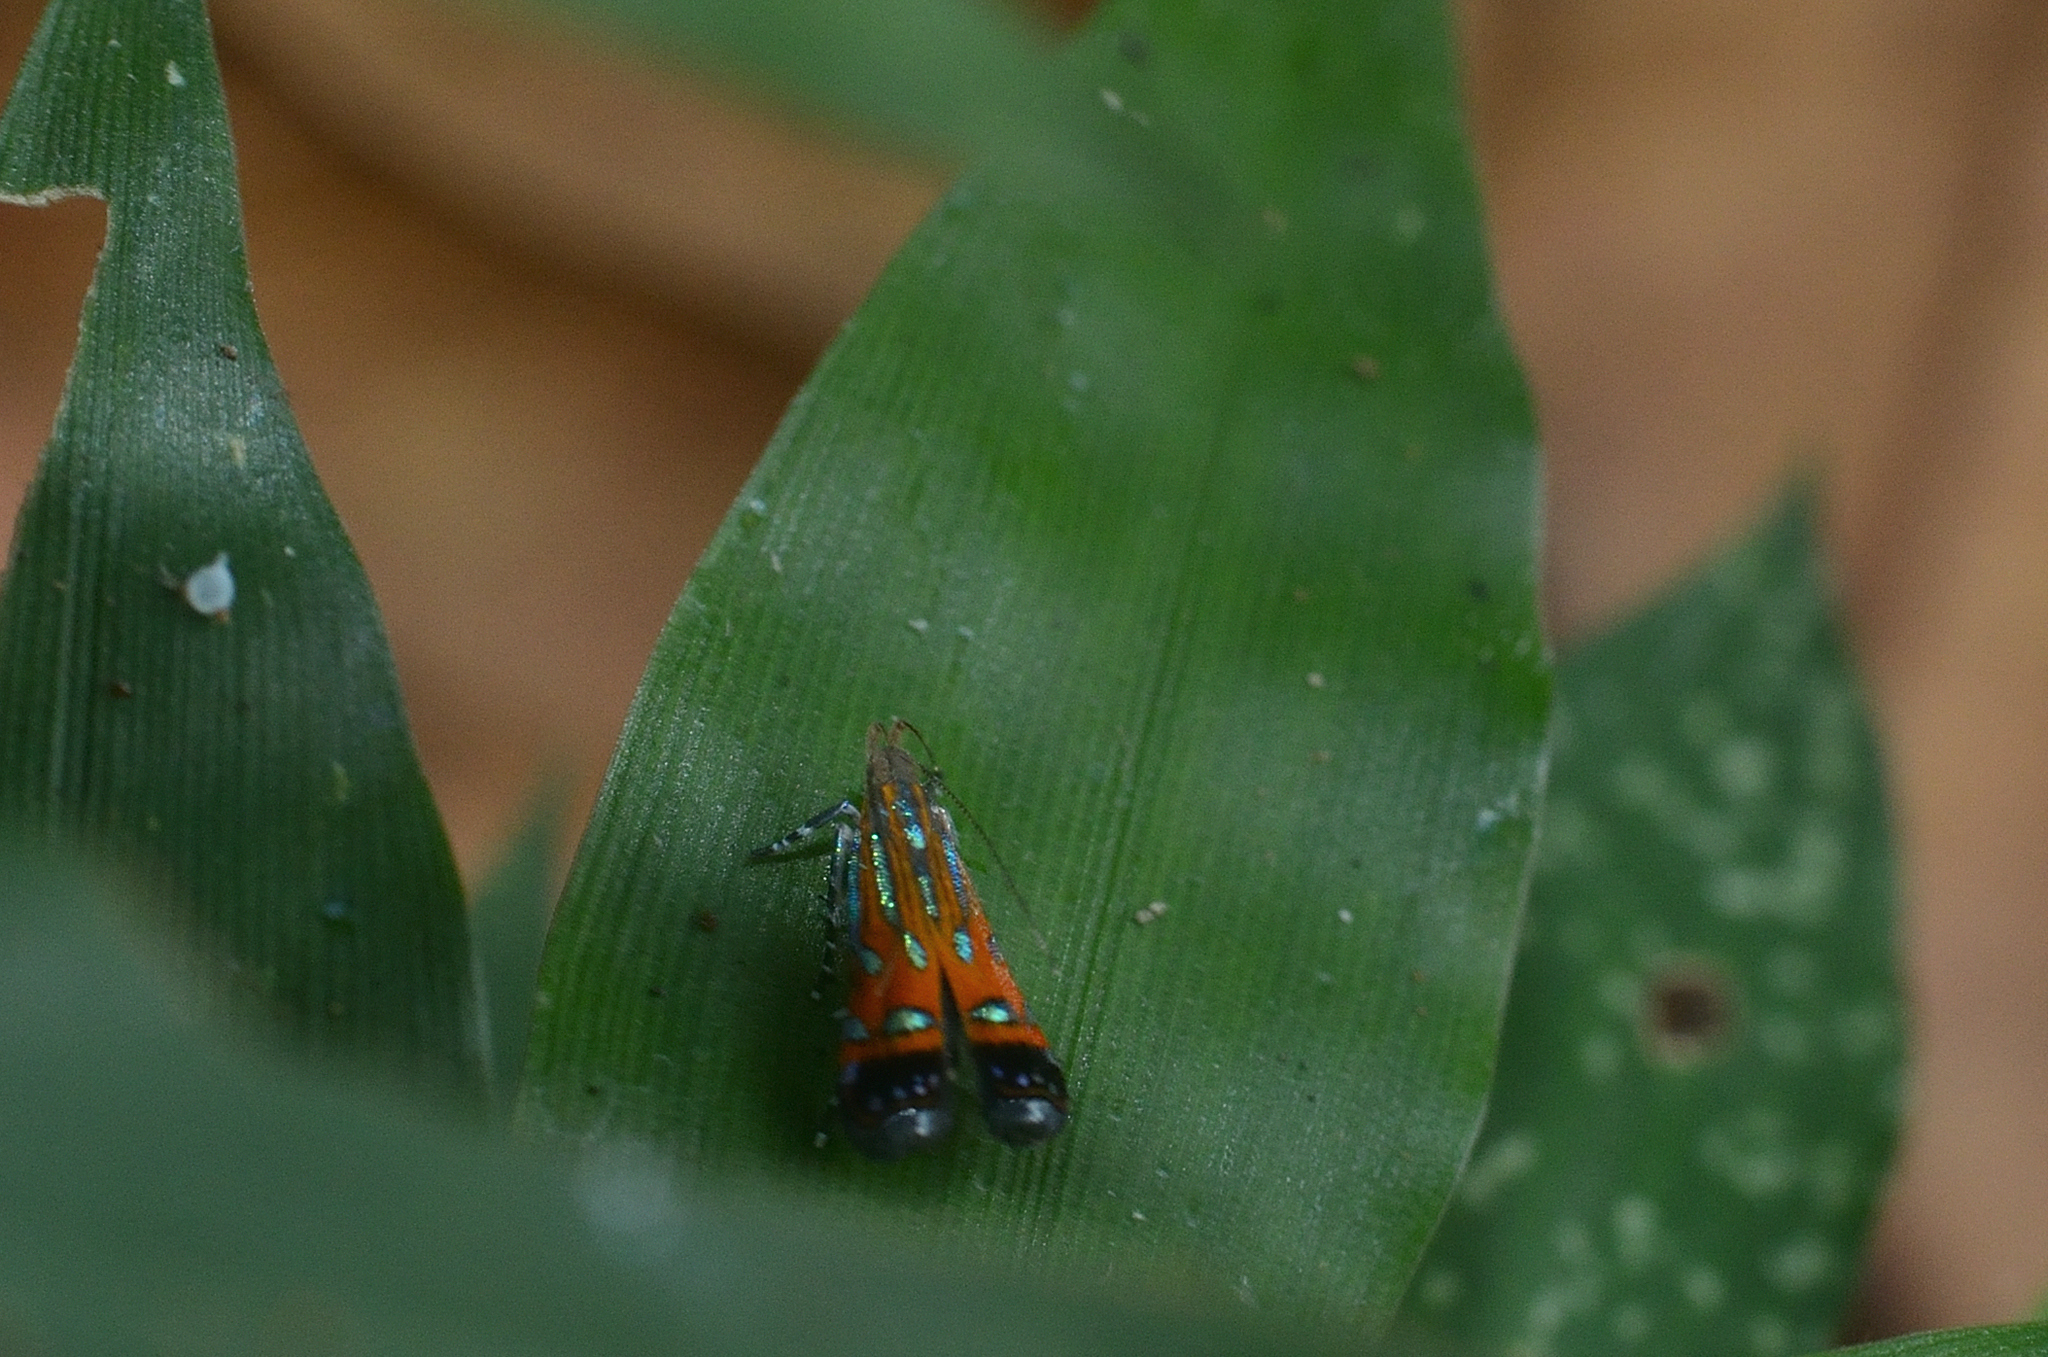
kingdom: Animalia
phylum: Arthropoda
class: Insecta
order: Lepidoptera
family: Gelechiidae
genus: Tricyanaula
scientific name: Tricyanaula aurantiaca
